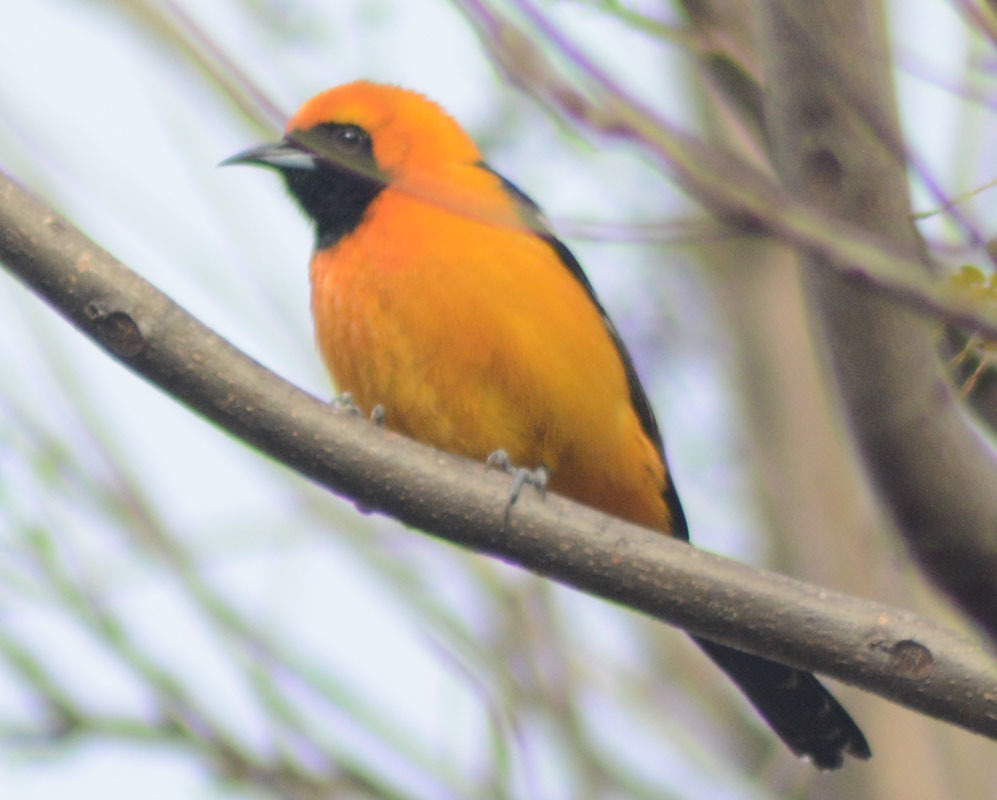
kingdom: Animalia
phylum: Chordata
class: Aves
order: Passeriformes
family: Icteridae
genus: Icterus
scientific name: Icterus cucullatus
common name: Hooded oriole
